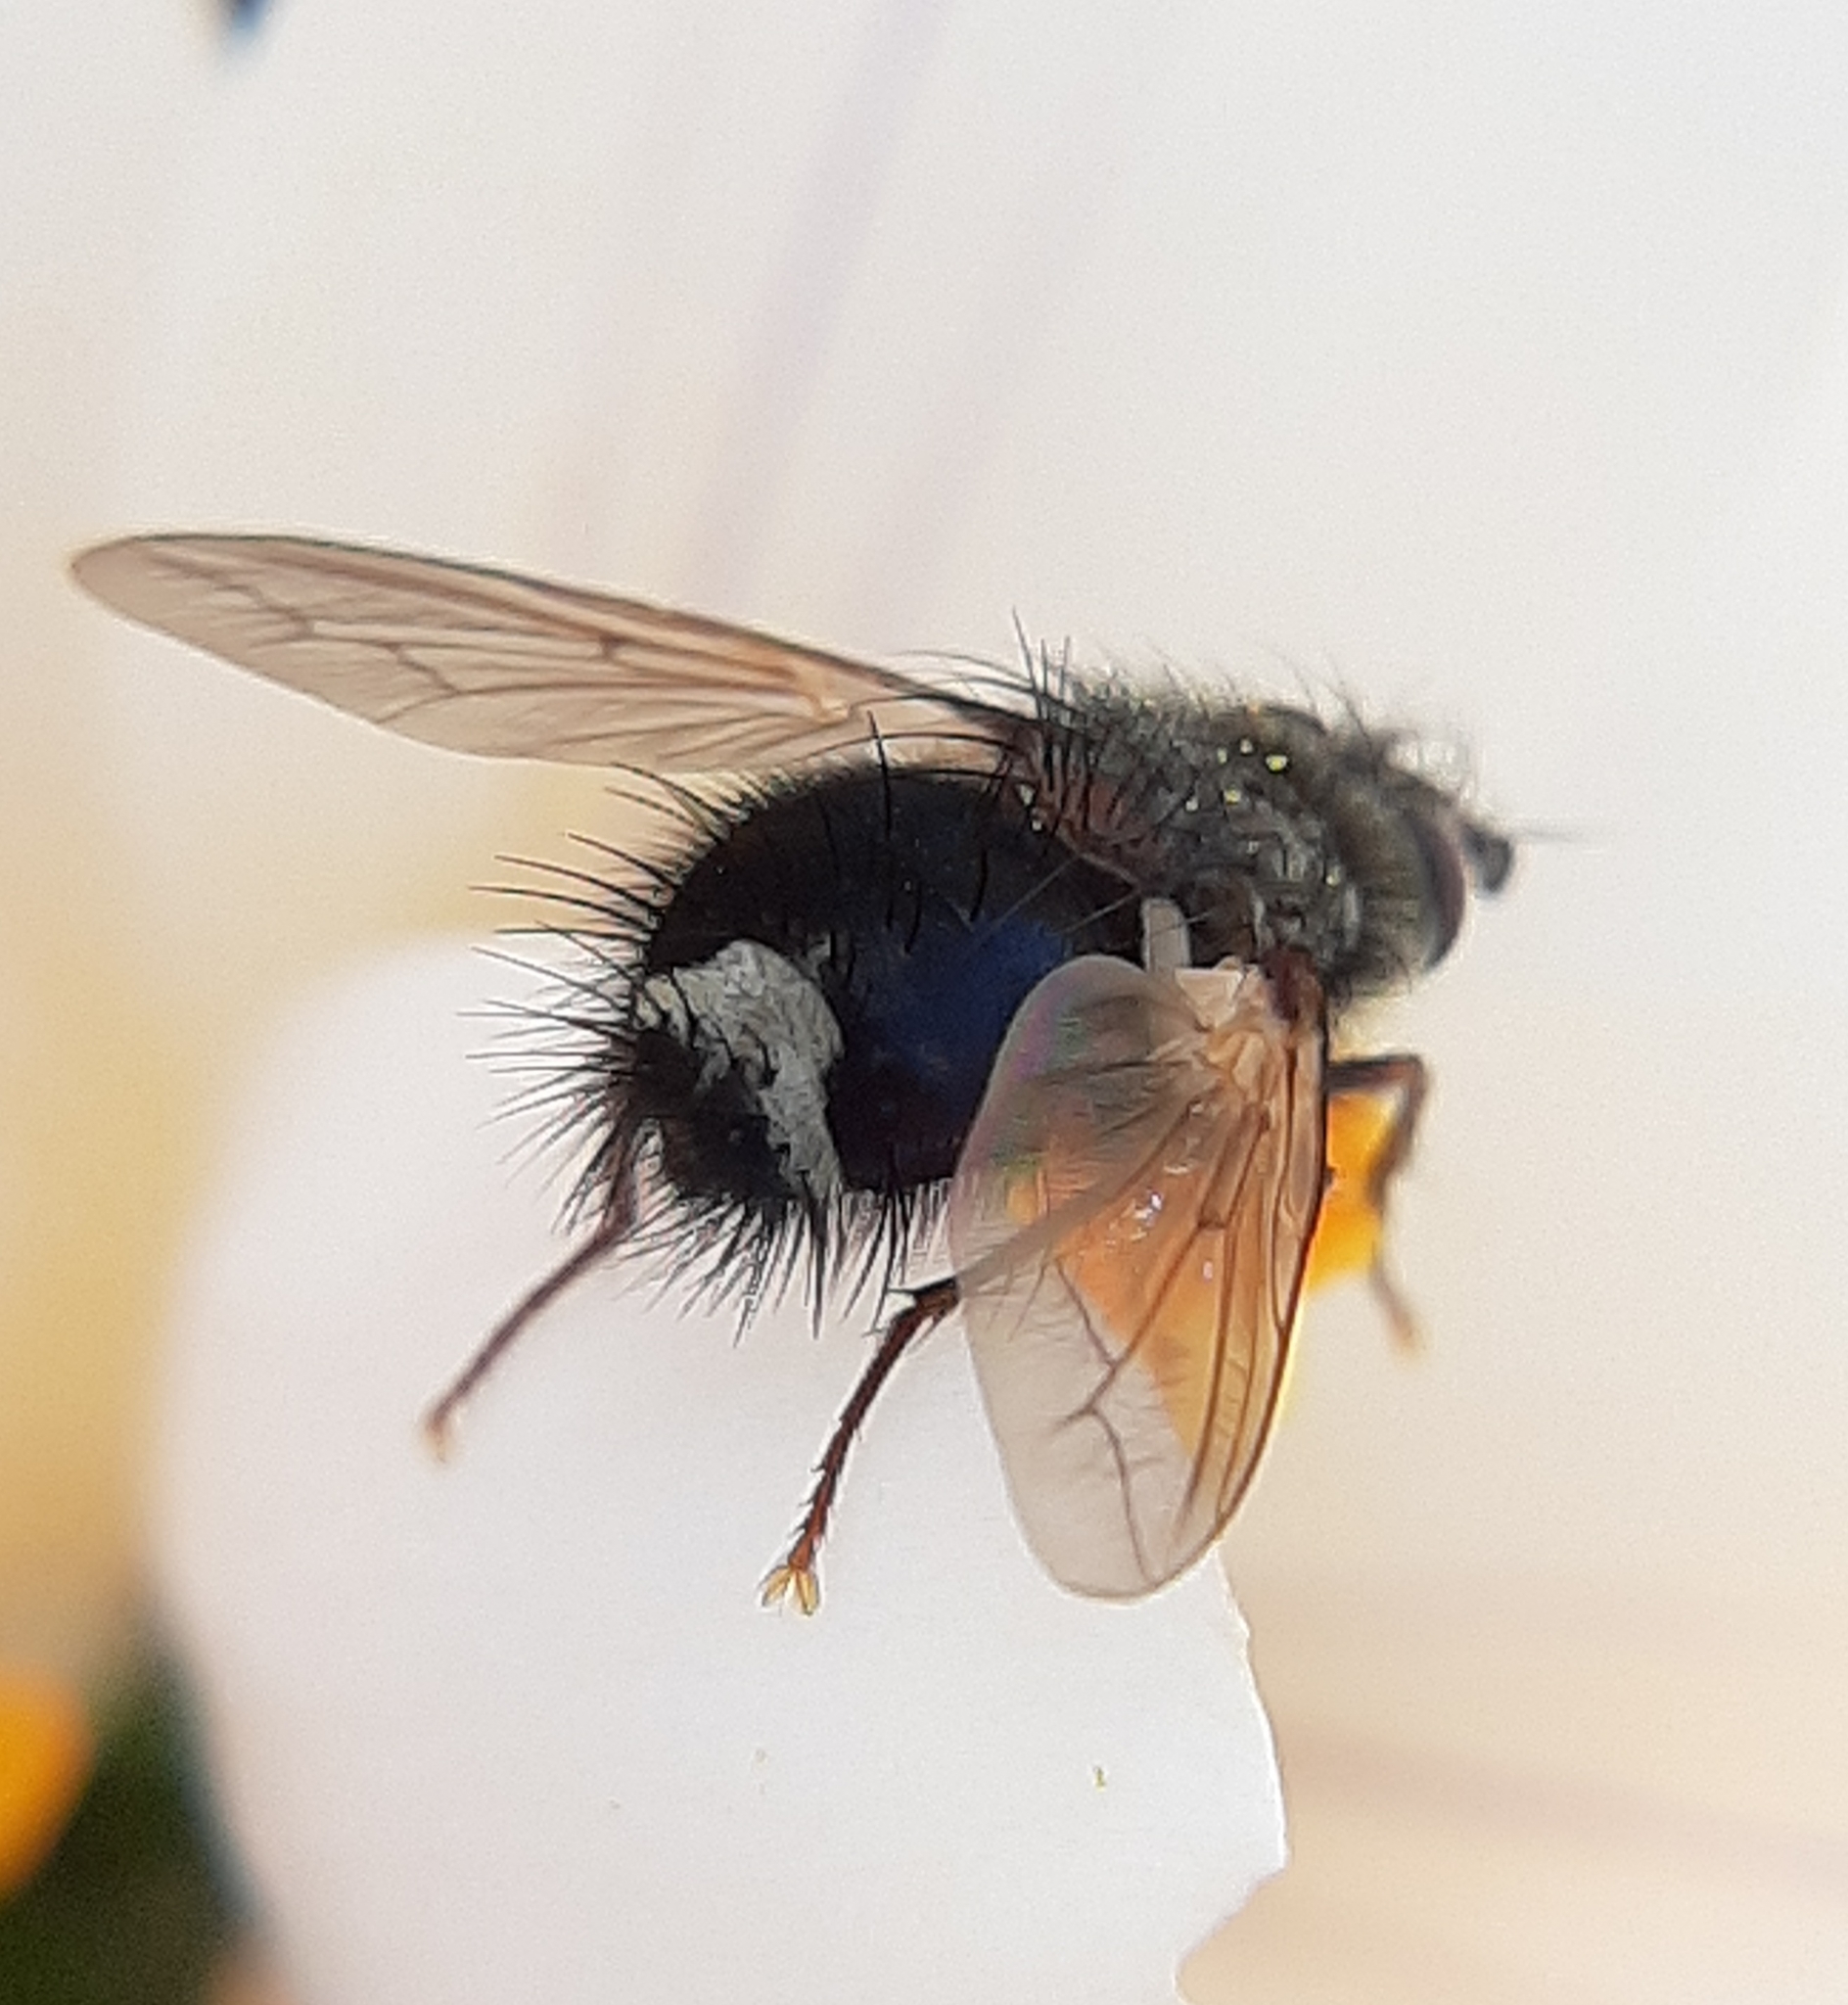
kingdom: Animalia
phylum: Arthropoda
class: Insecta
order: Diptera
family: Tachinidae
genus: Epalpus
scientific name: Epalpus signifer
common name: Early tachinid fly
